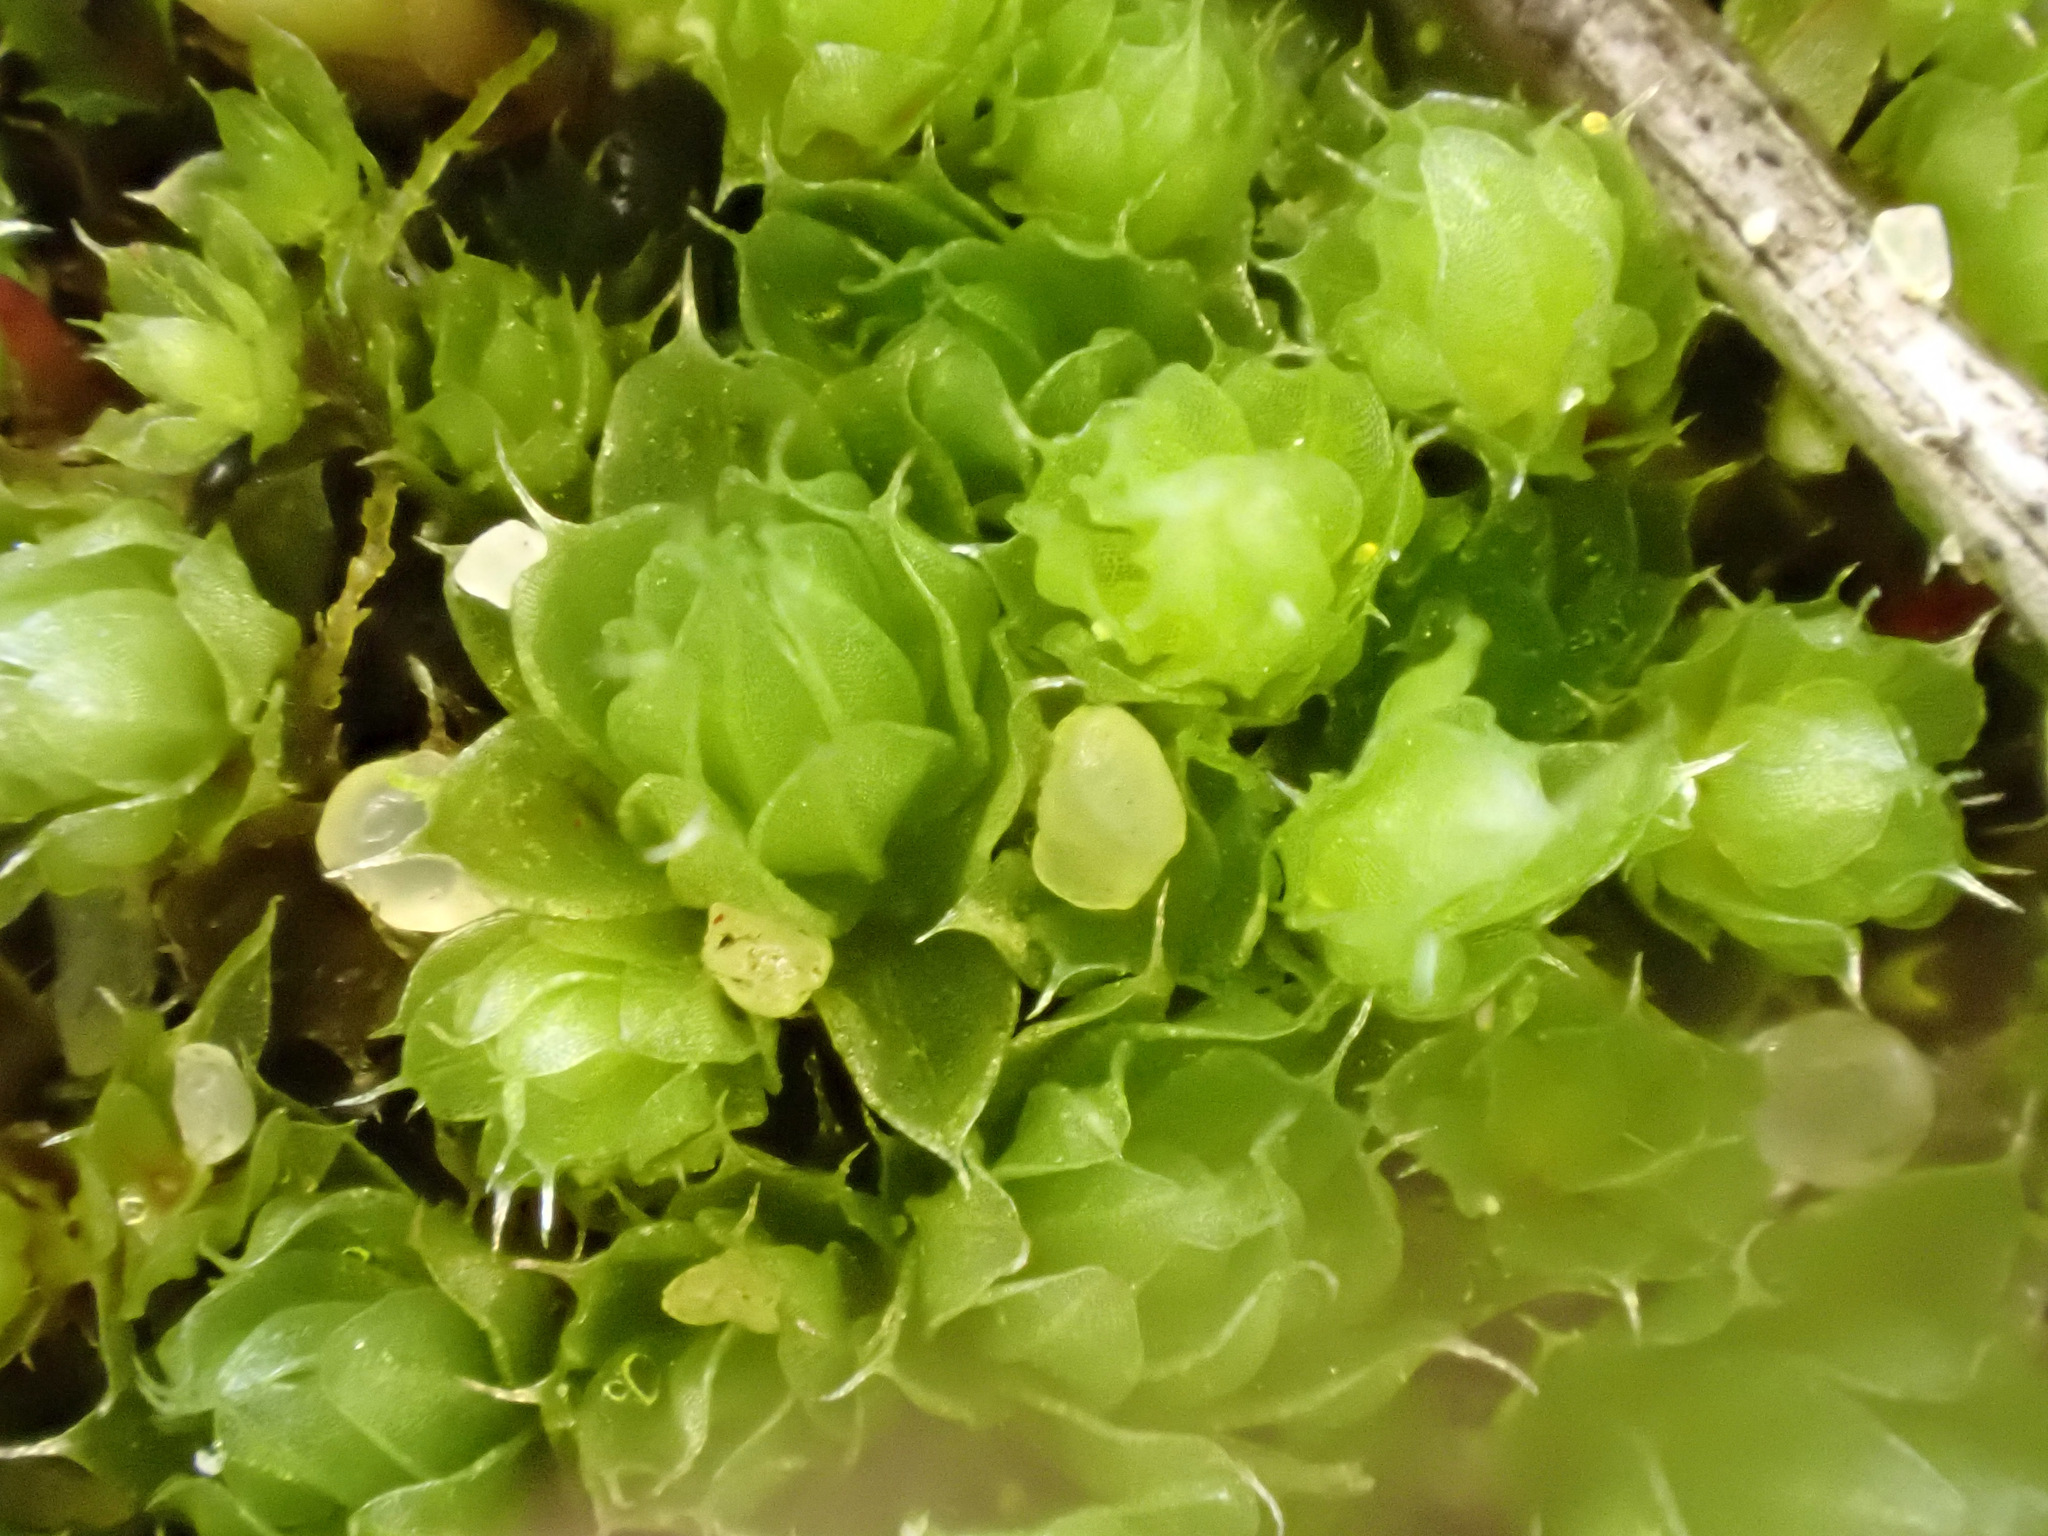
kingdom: Plantae
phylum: Bryophyta
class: Bryopsida
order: Bryales
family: Bryaceae
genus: Rosulabryum
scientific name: Rosulabryum capillare
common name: Capillary thread-moss
